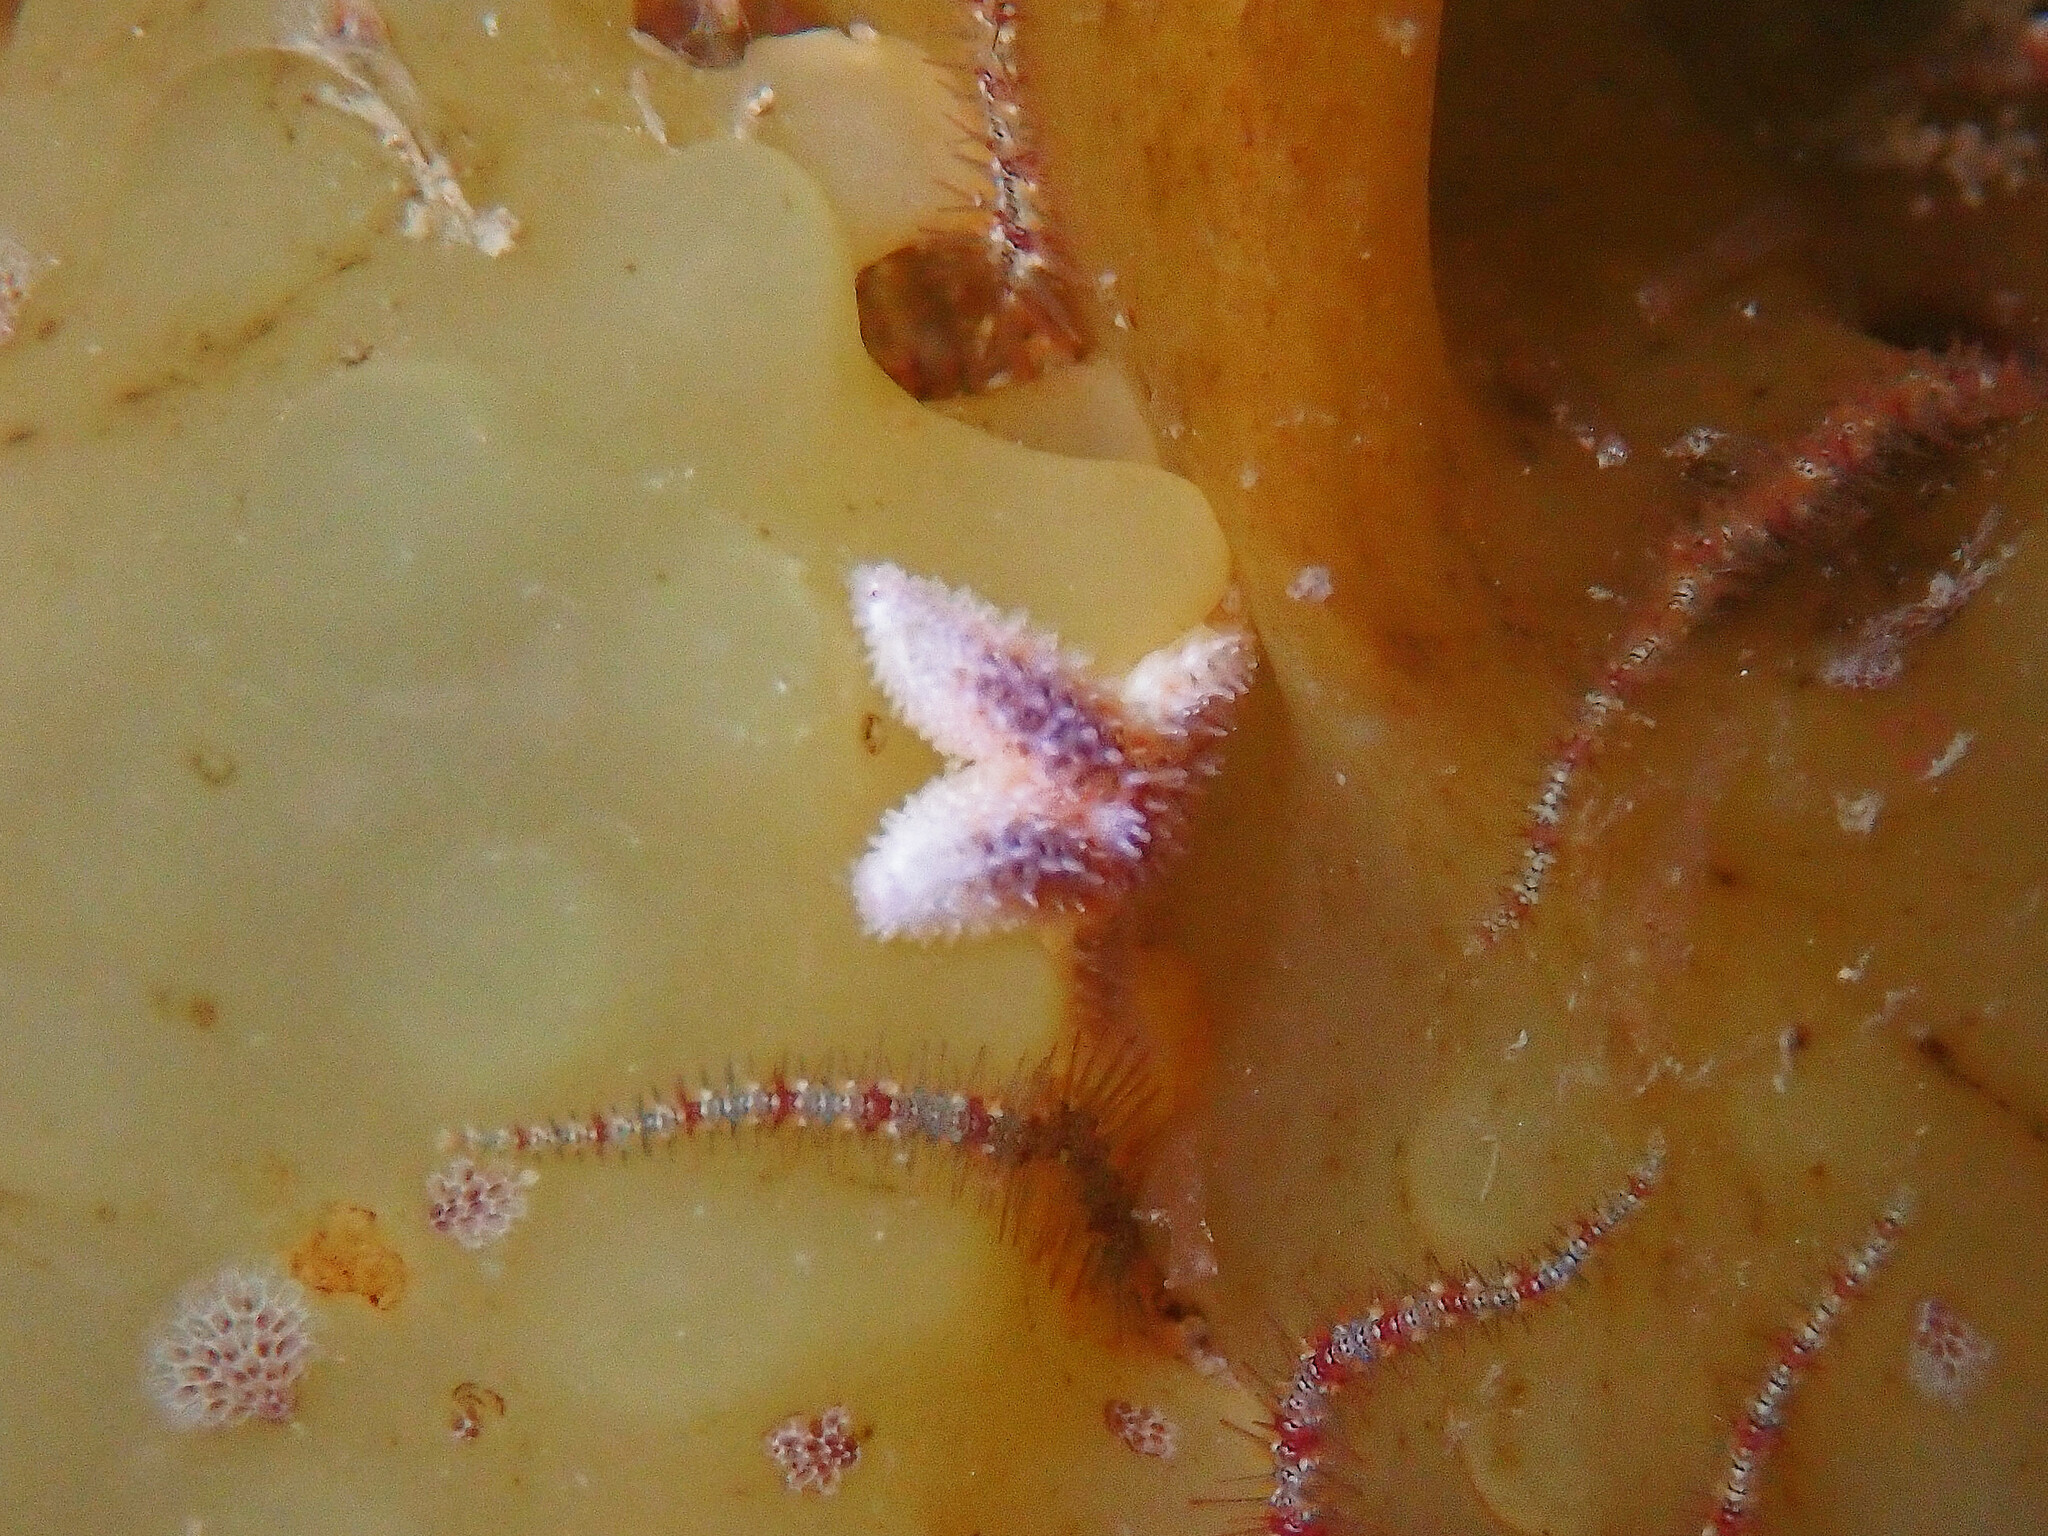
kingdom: Animalia
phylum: Echinodermata
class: Asteroidea
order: Forcipulatida
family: Asteriidae
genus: Asterias
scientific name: Asterias rubens
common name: Common starfish
